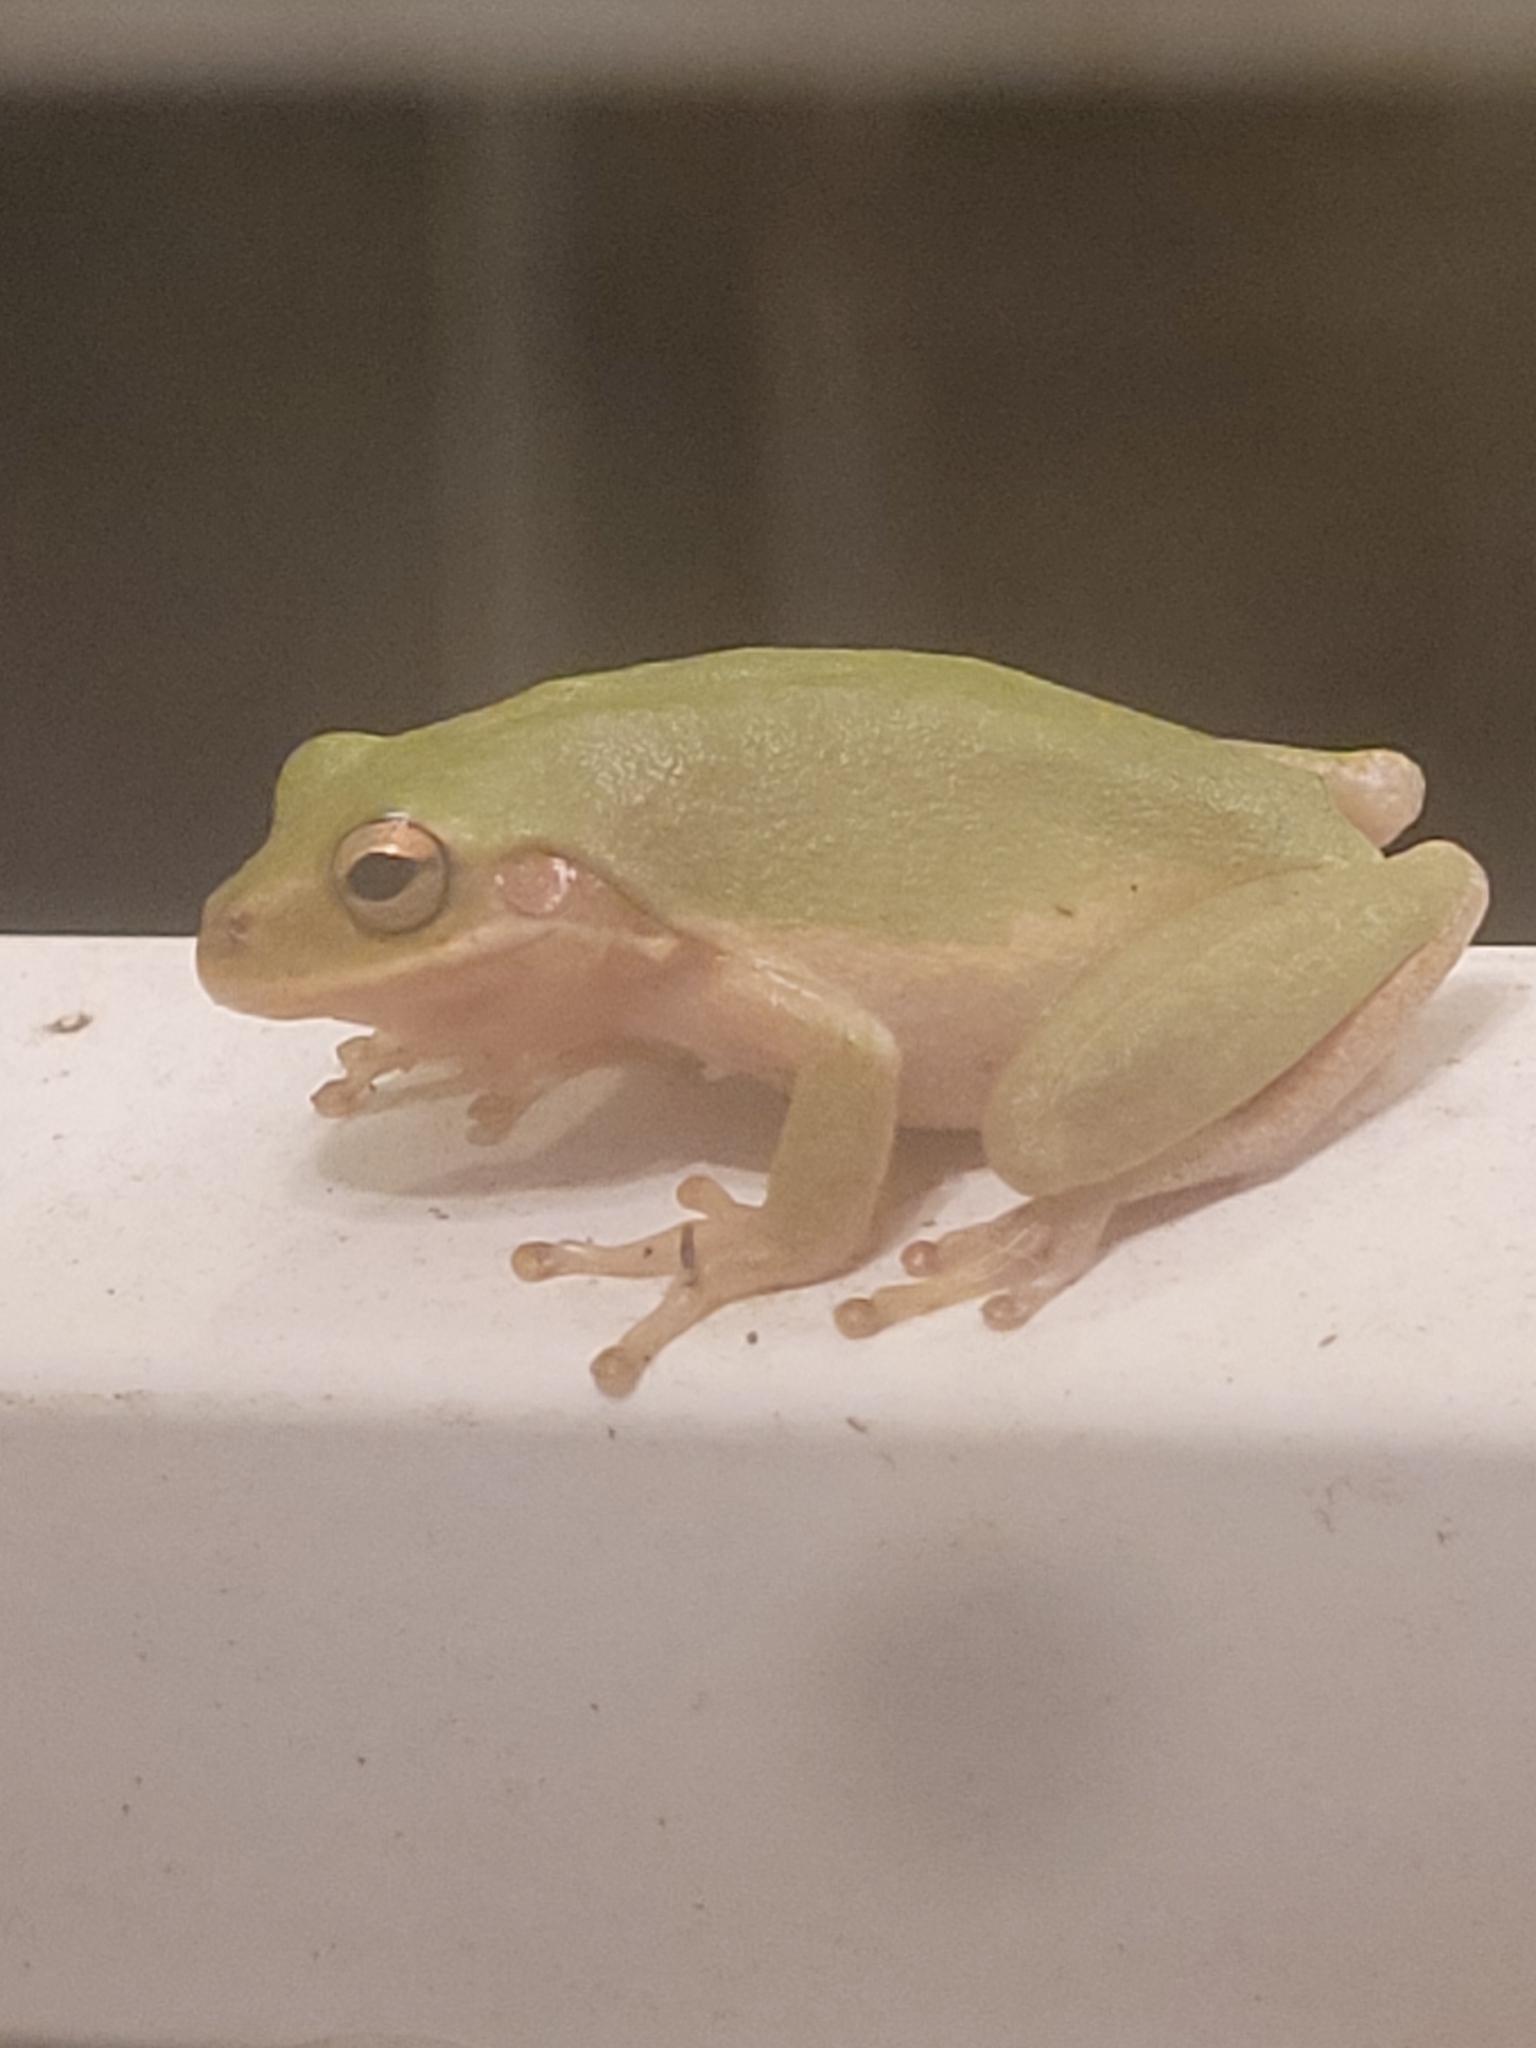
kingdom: Animalia
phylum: Chordata
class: Amphibia
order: Anura
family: Hylidae
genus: Dryophytes
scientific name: Dryophytes squirellus
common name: Squirrel treefrog
